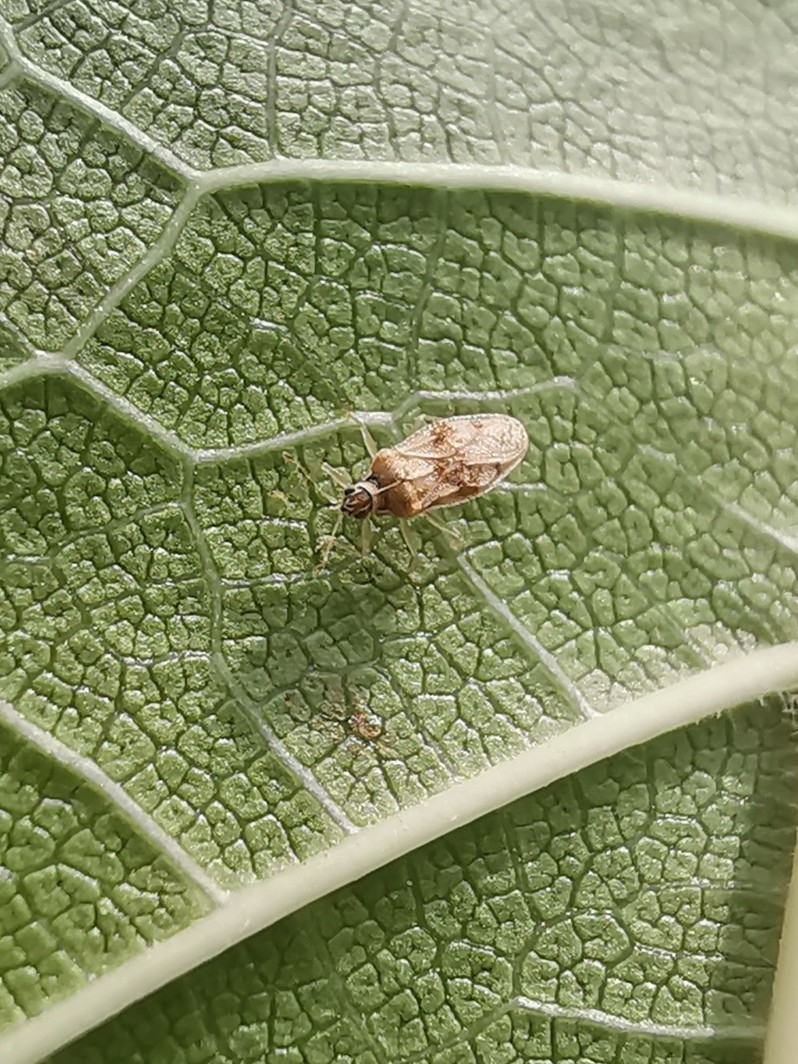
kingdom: Animalia
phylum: Arthropoda
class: Insecta
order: Hemiptera
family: Tingidae
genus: Monosteira
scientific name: Monosteira unicostata
